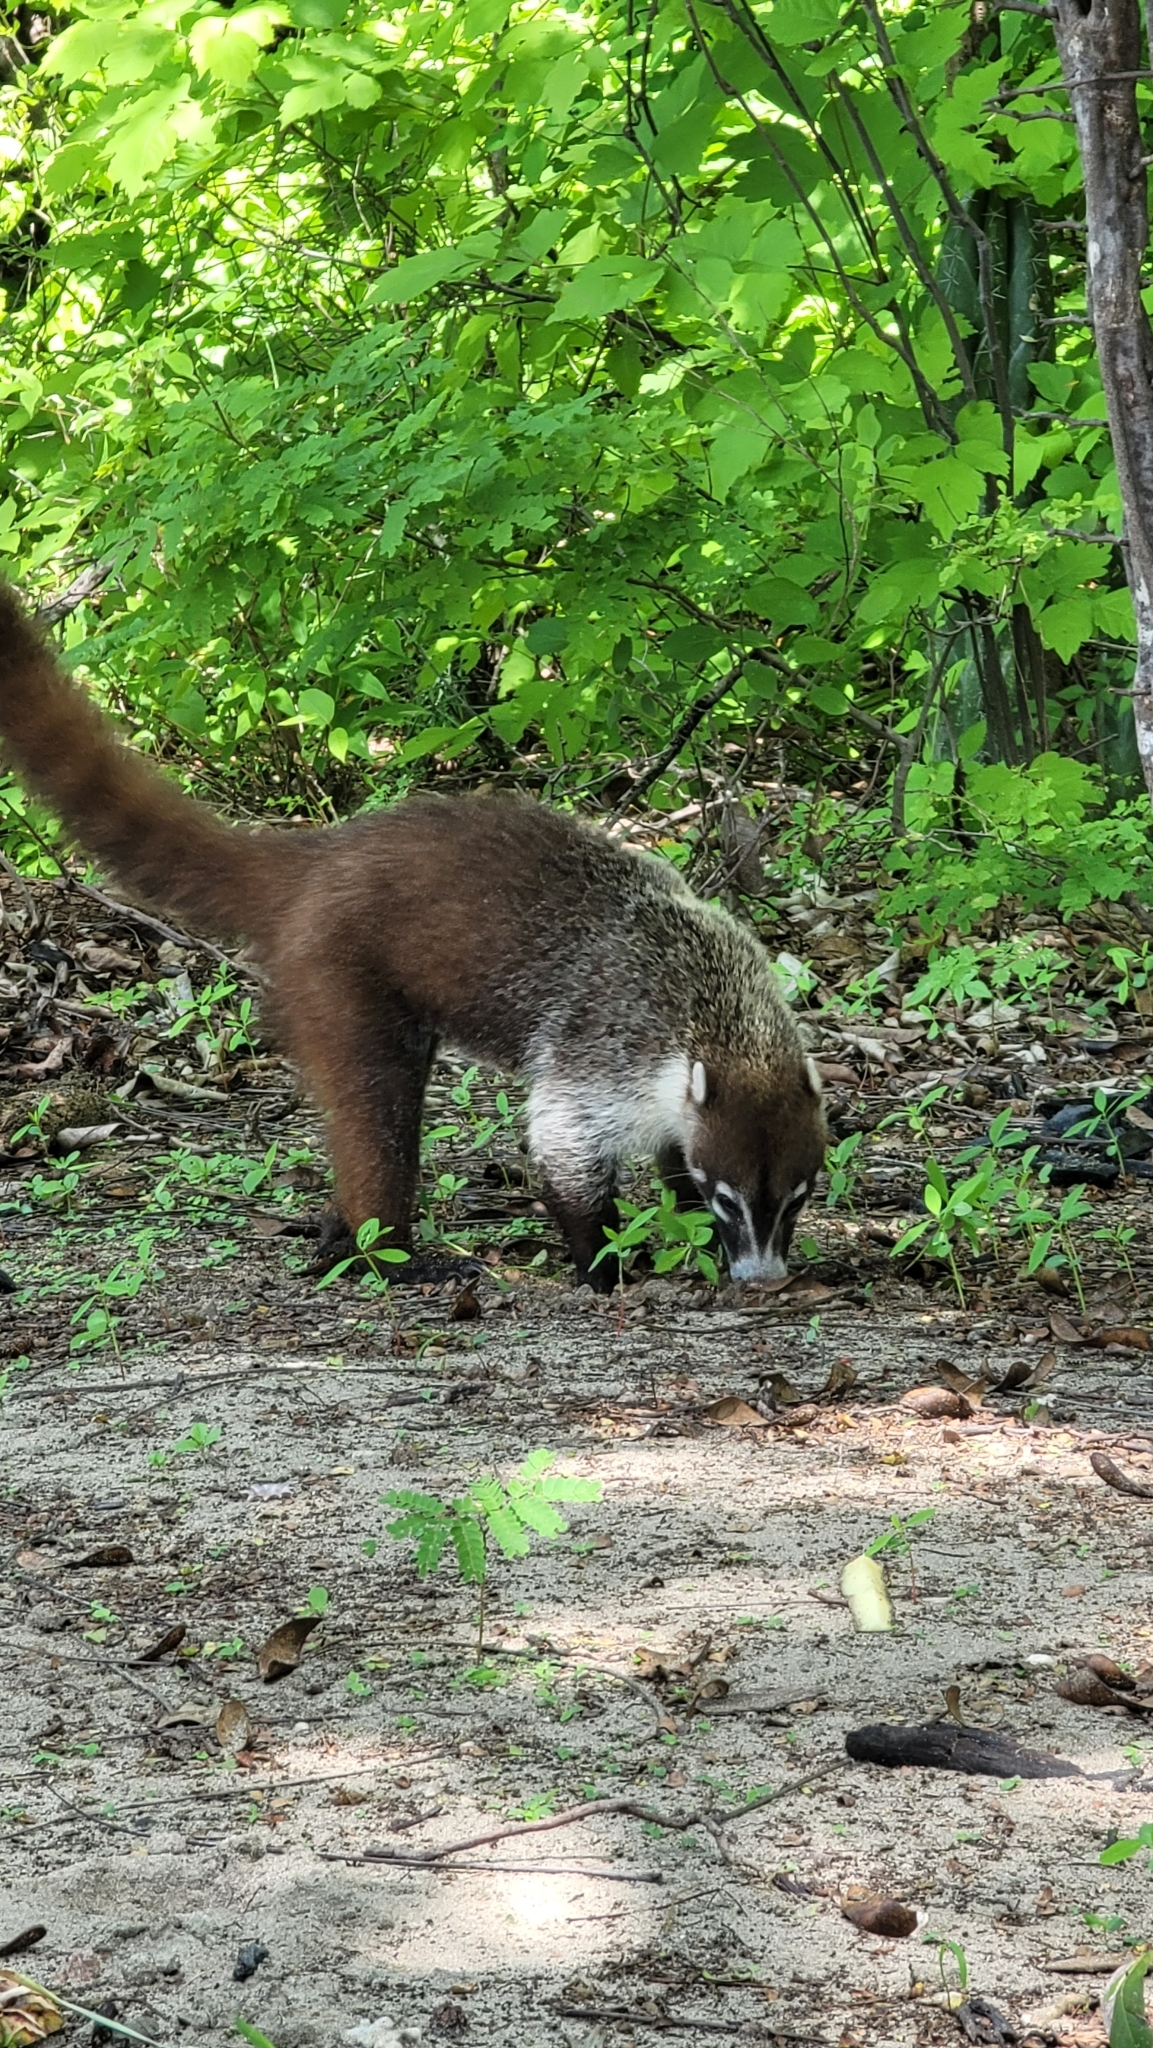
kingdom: Animalia
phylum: Chordata
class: Mammalia
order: Carnivora
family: Procyonidae
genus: Nasua
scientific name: Nasua narica
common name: White-nosed coati
